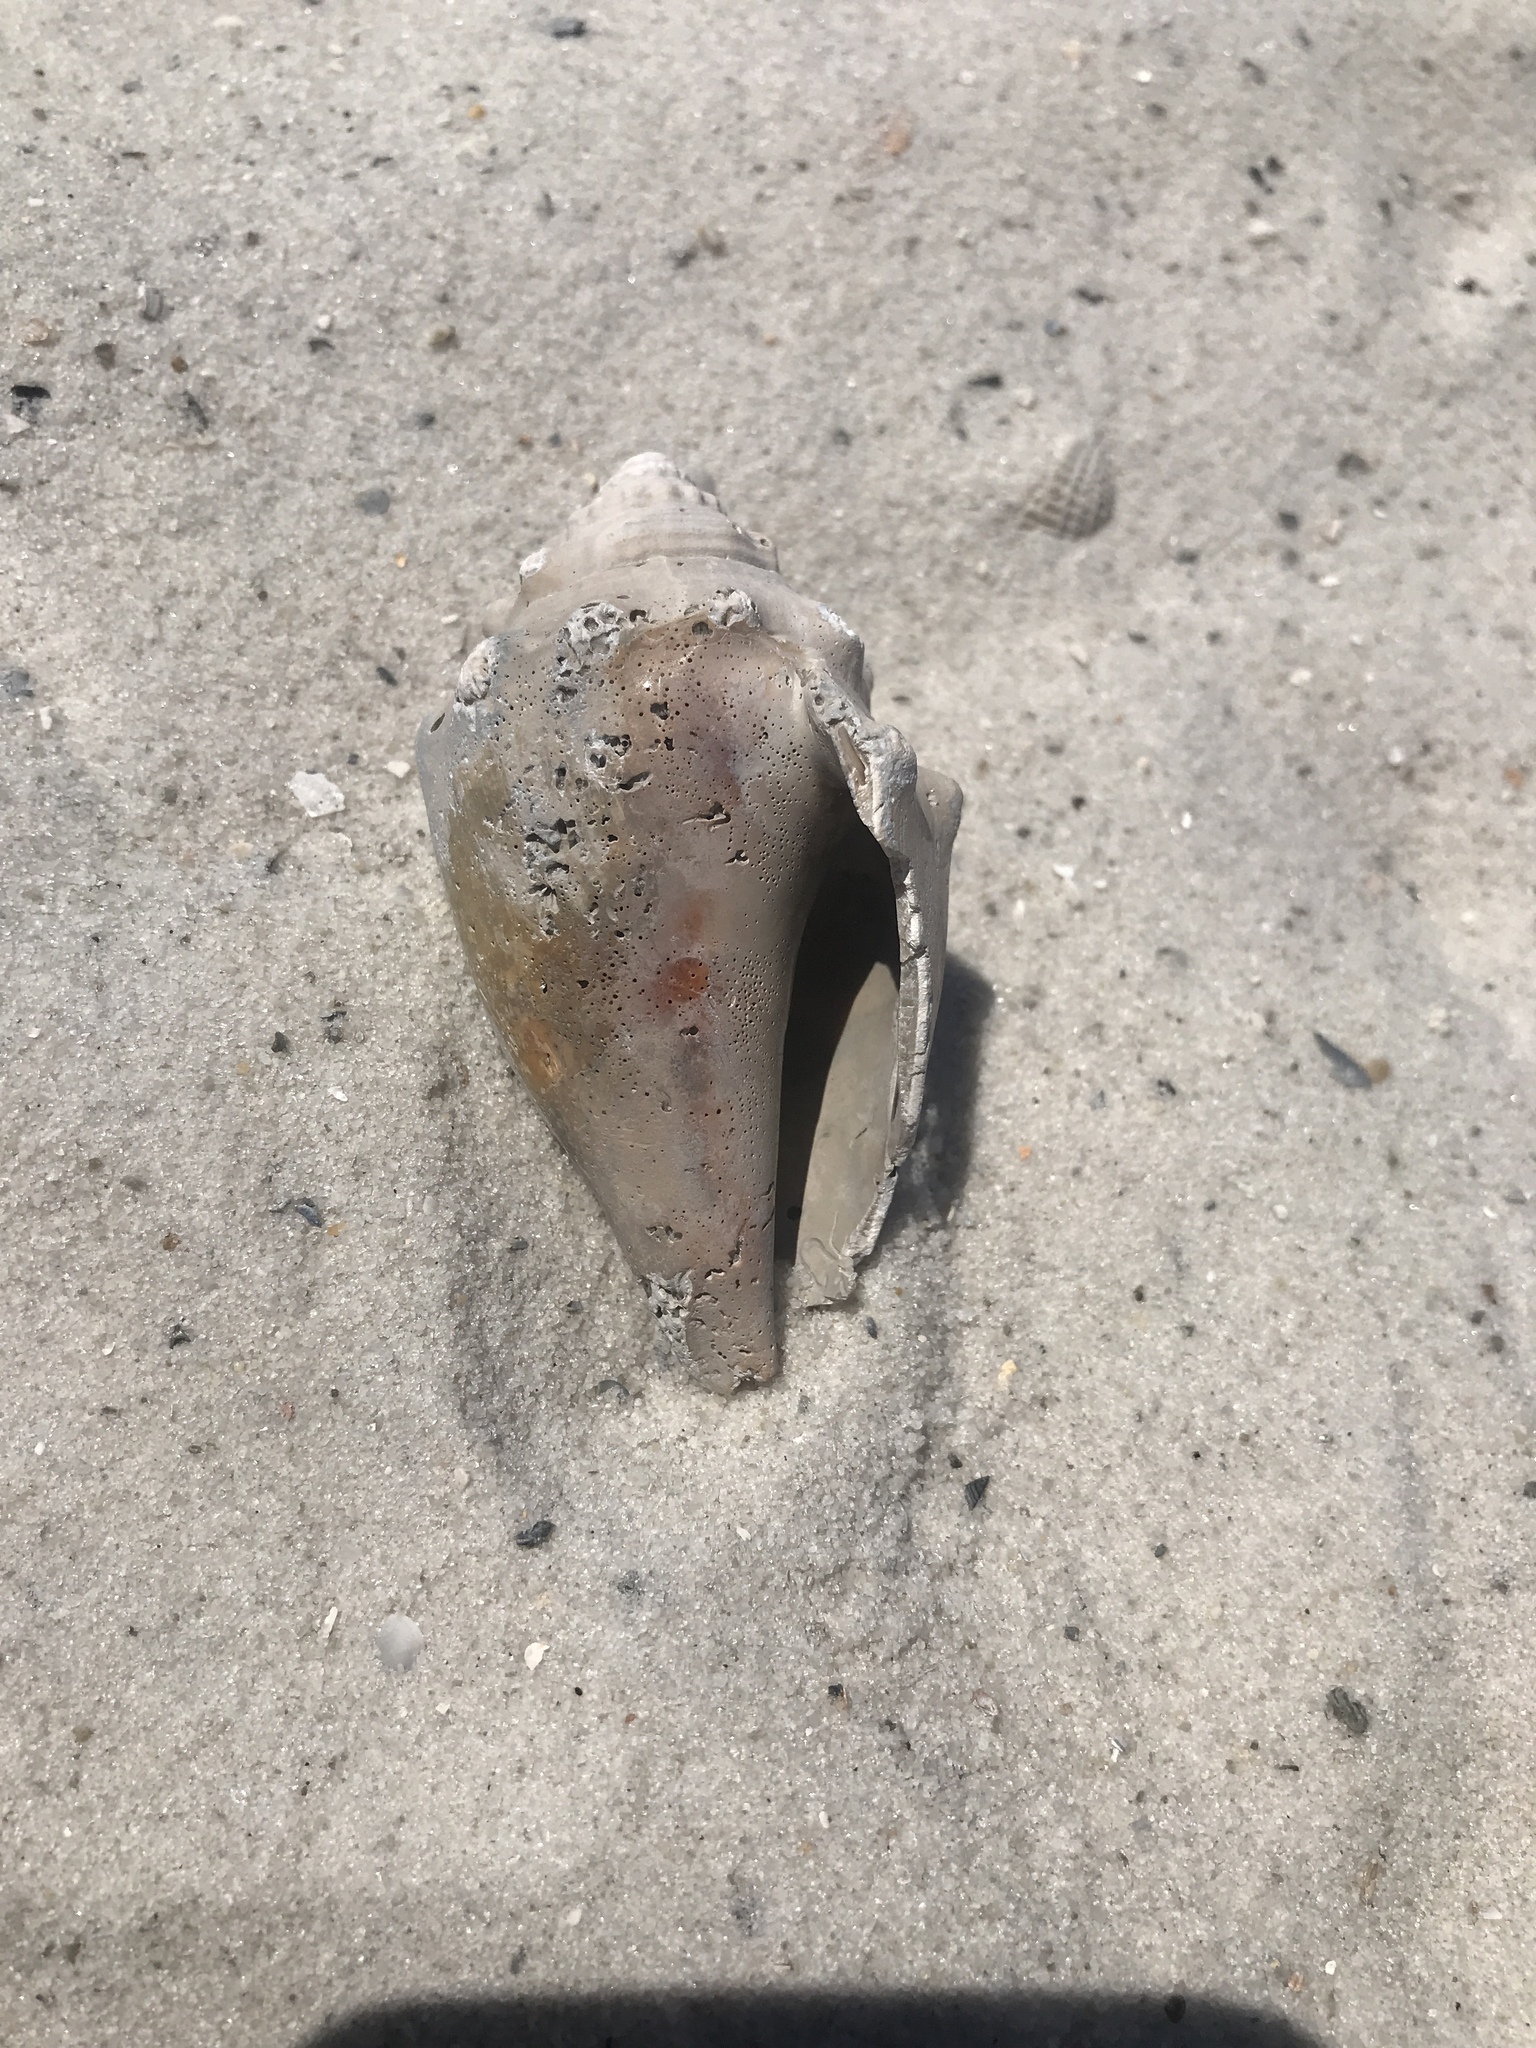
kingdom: Animalia
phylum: Mollusca
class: Gastropoda
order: Littorinimorpha
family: Strombidae
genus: Strombus
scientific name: Strombus alatus
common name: Florida fighting conch
